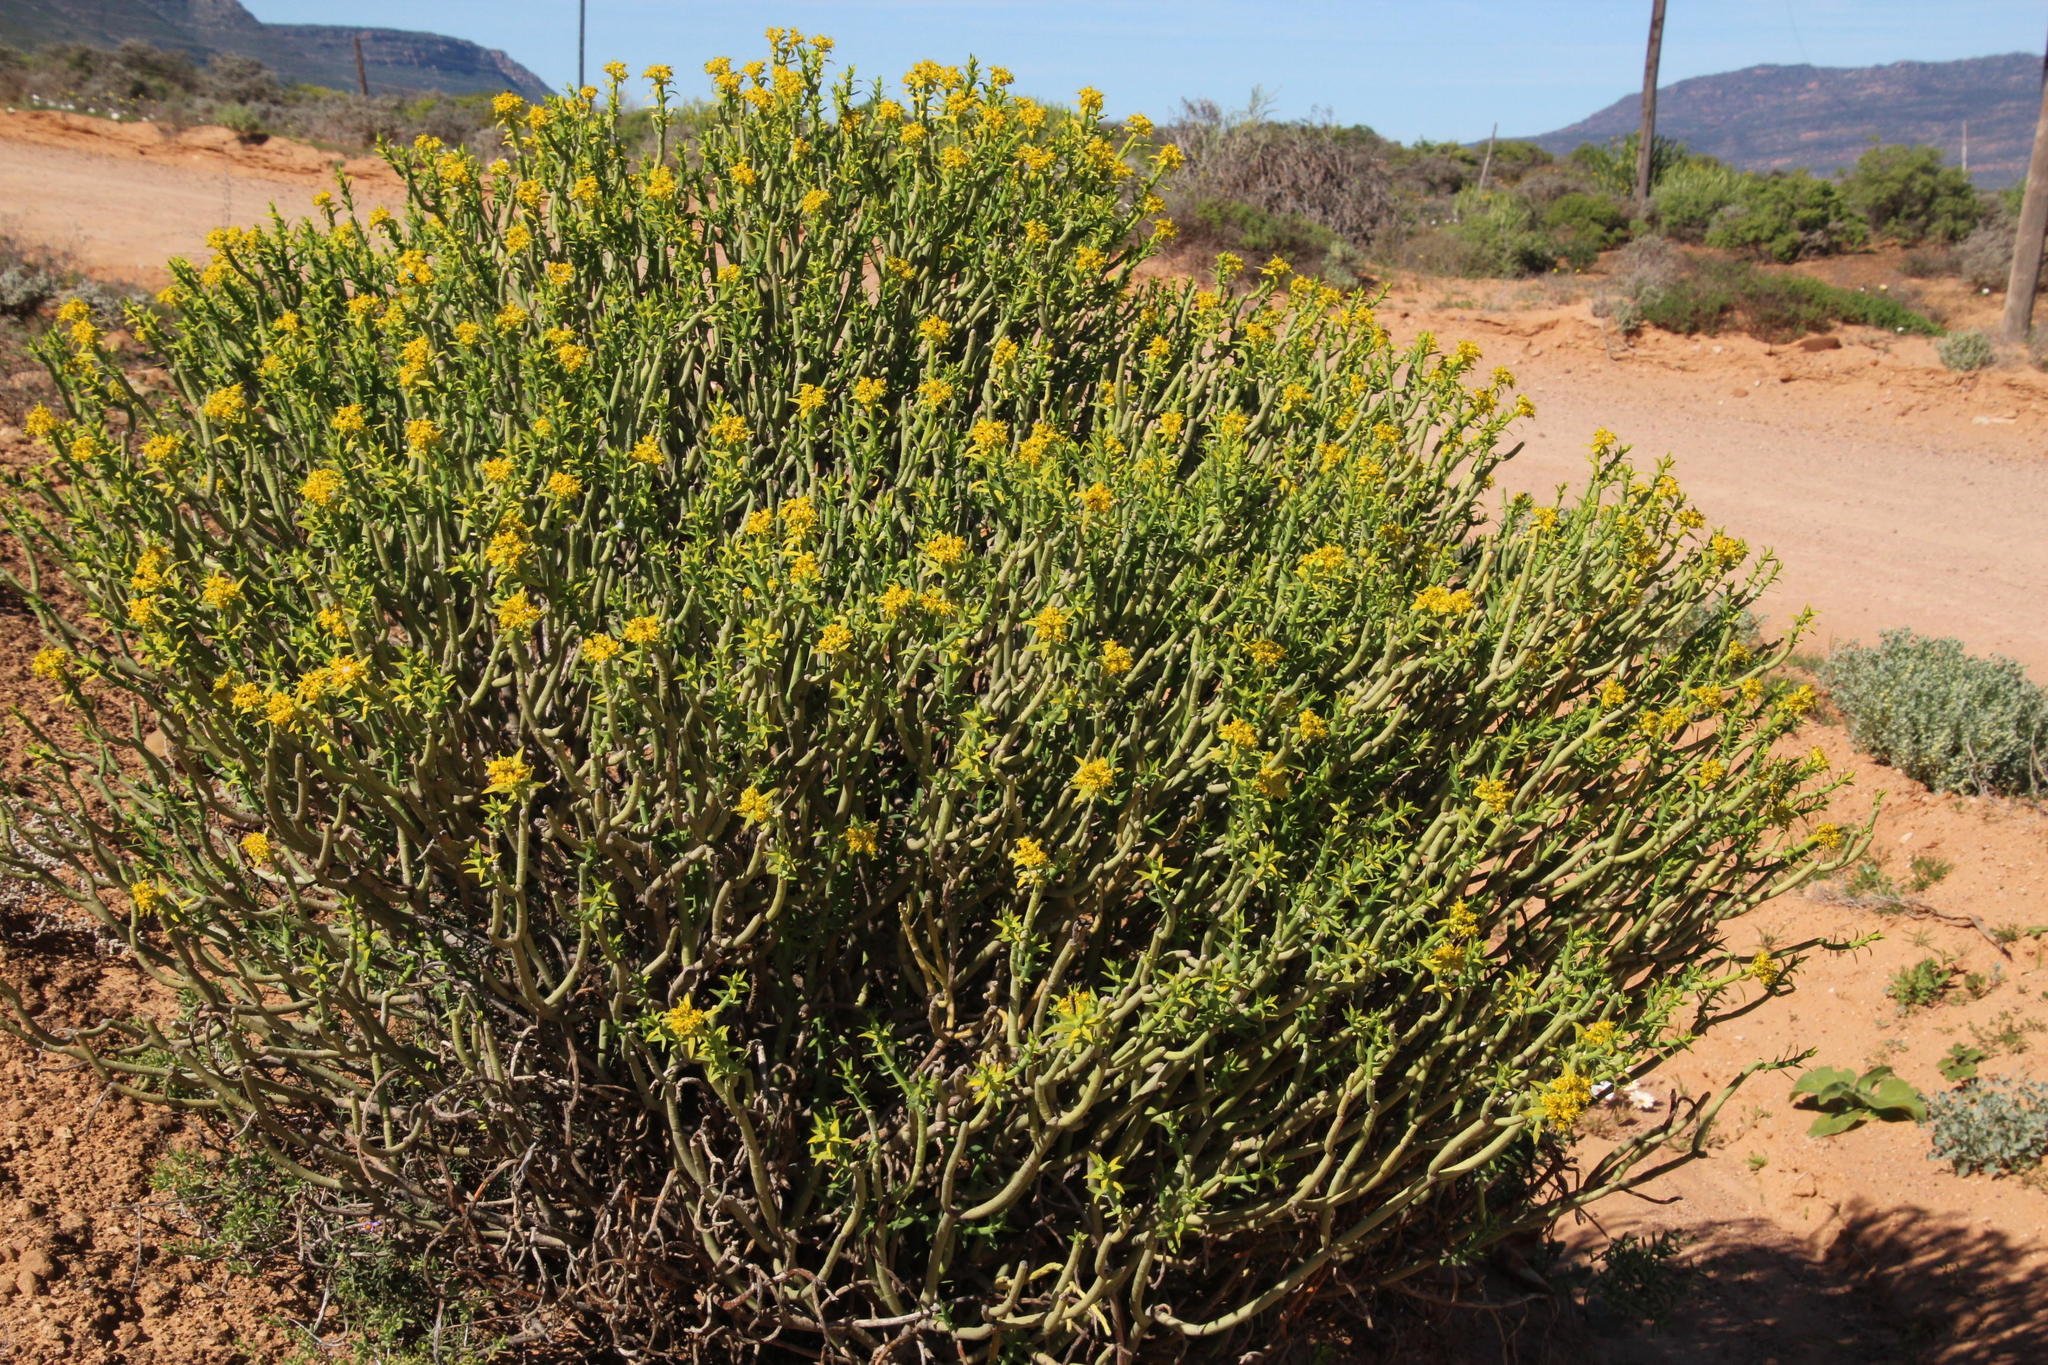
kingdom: Plantae
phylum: Tracheophyta
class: Magnoliopsida
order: Malpighiales
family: Euphorbiaceae
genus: Euphorbia
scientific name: Euphorbia mauritanica
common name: Jackal's-food
